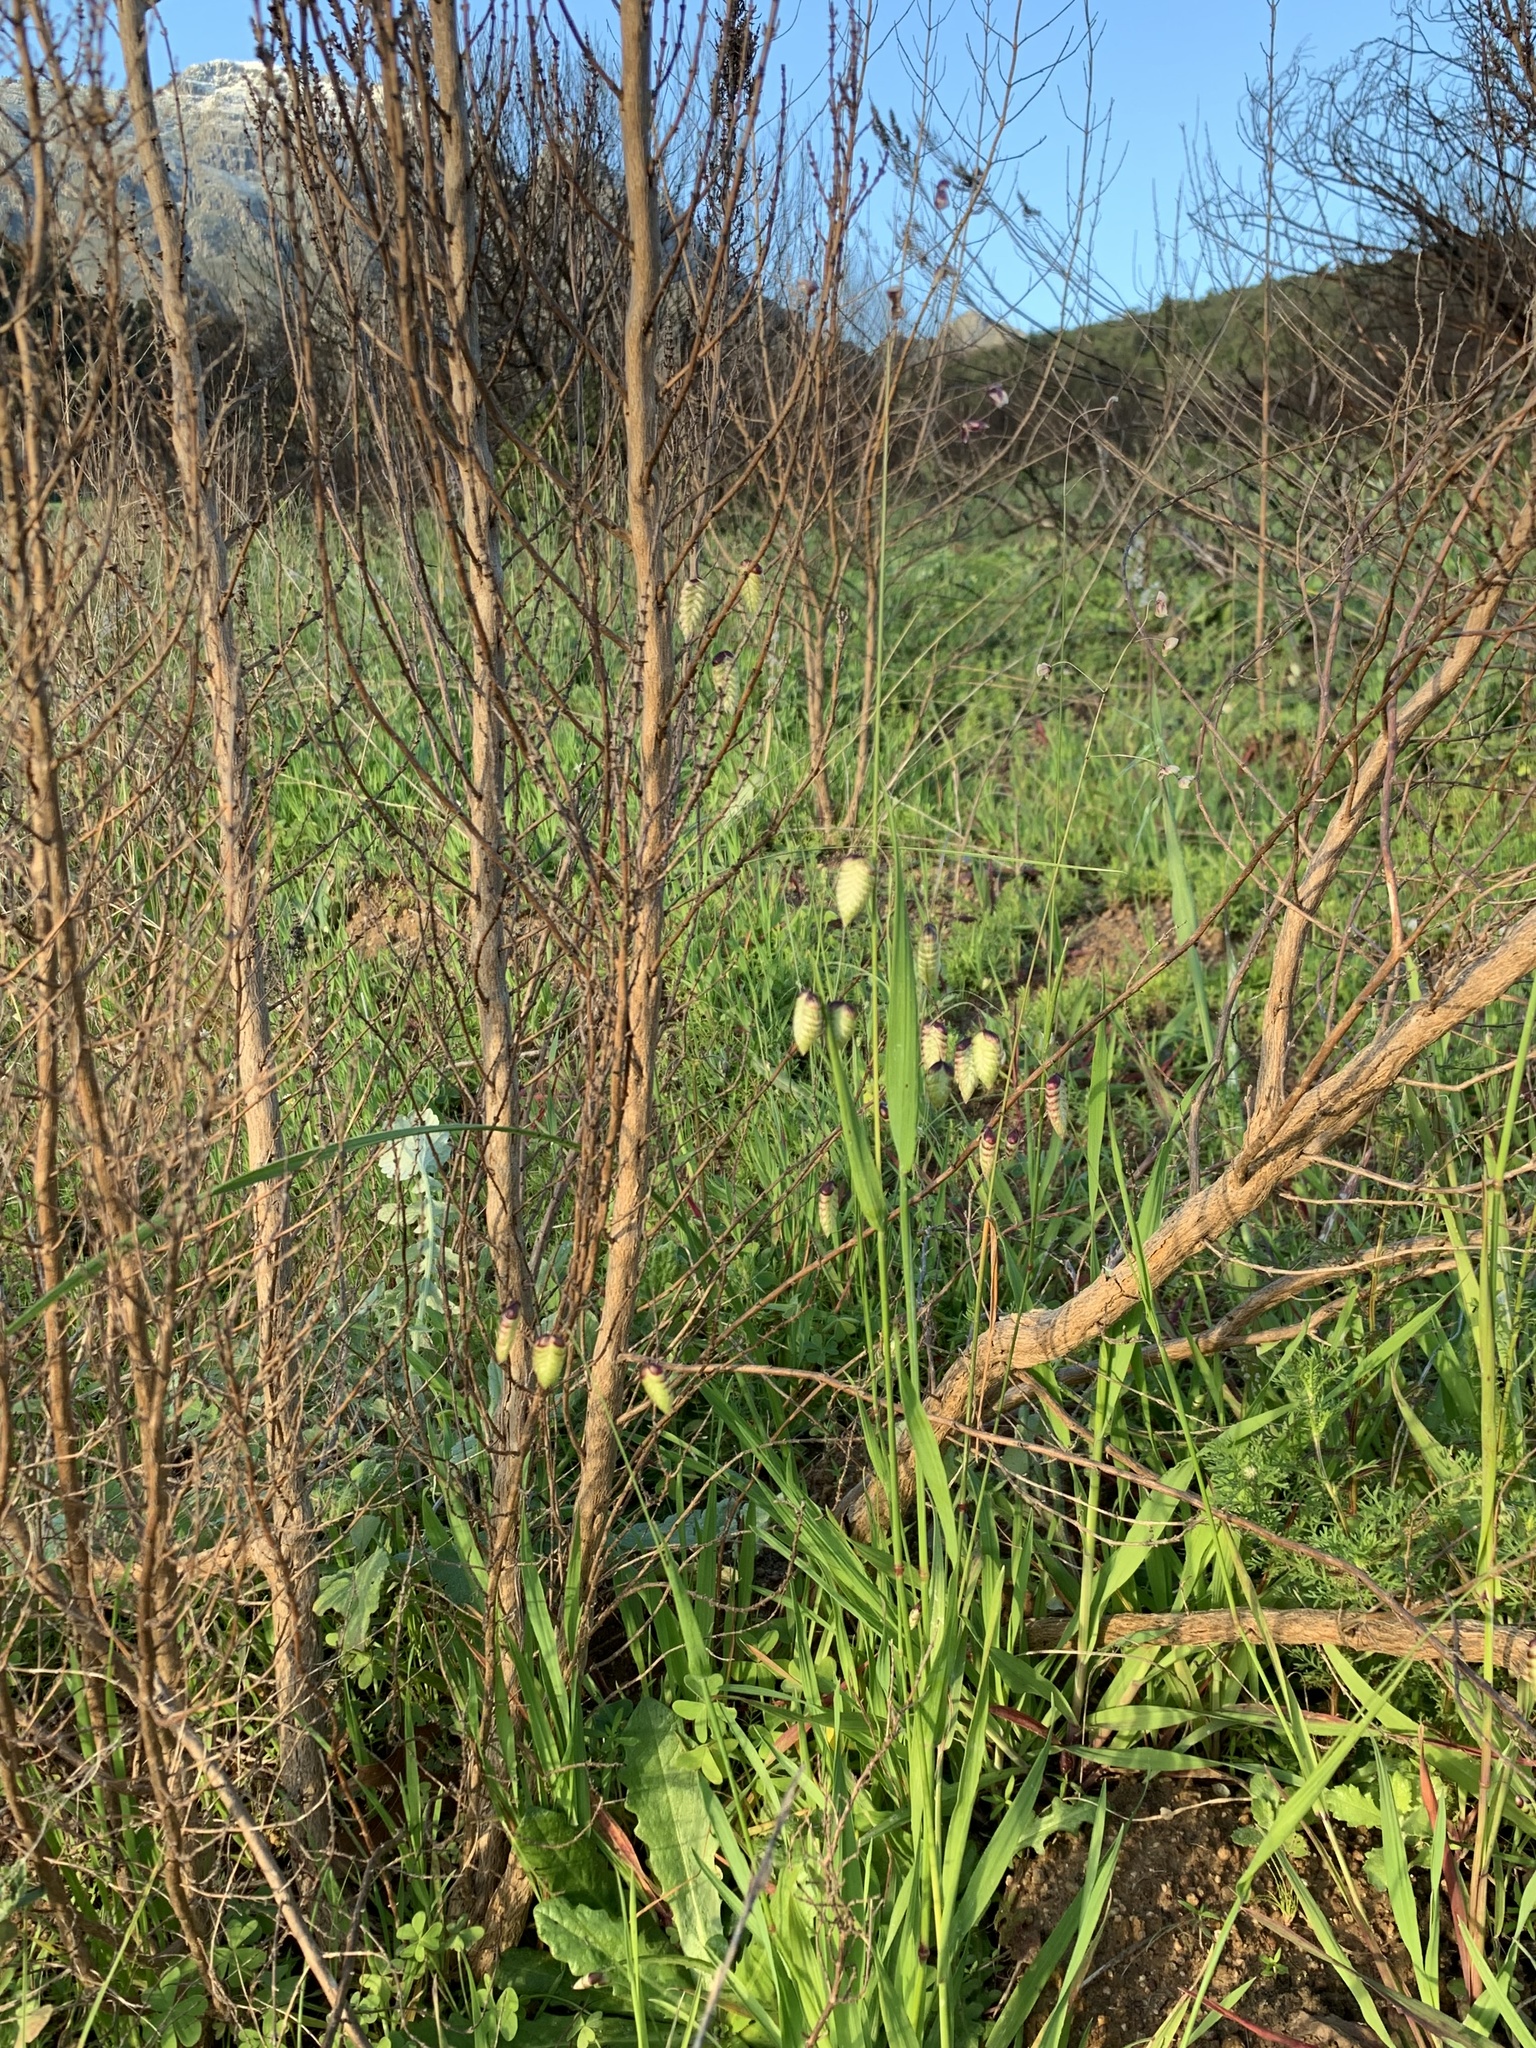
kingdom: Plantae
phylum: Tracheophyta
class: Liliopsida
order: Poales
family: Poaceae
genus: Briza
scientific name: Briza maxima
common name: Big quakinggrass
